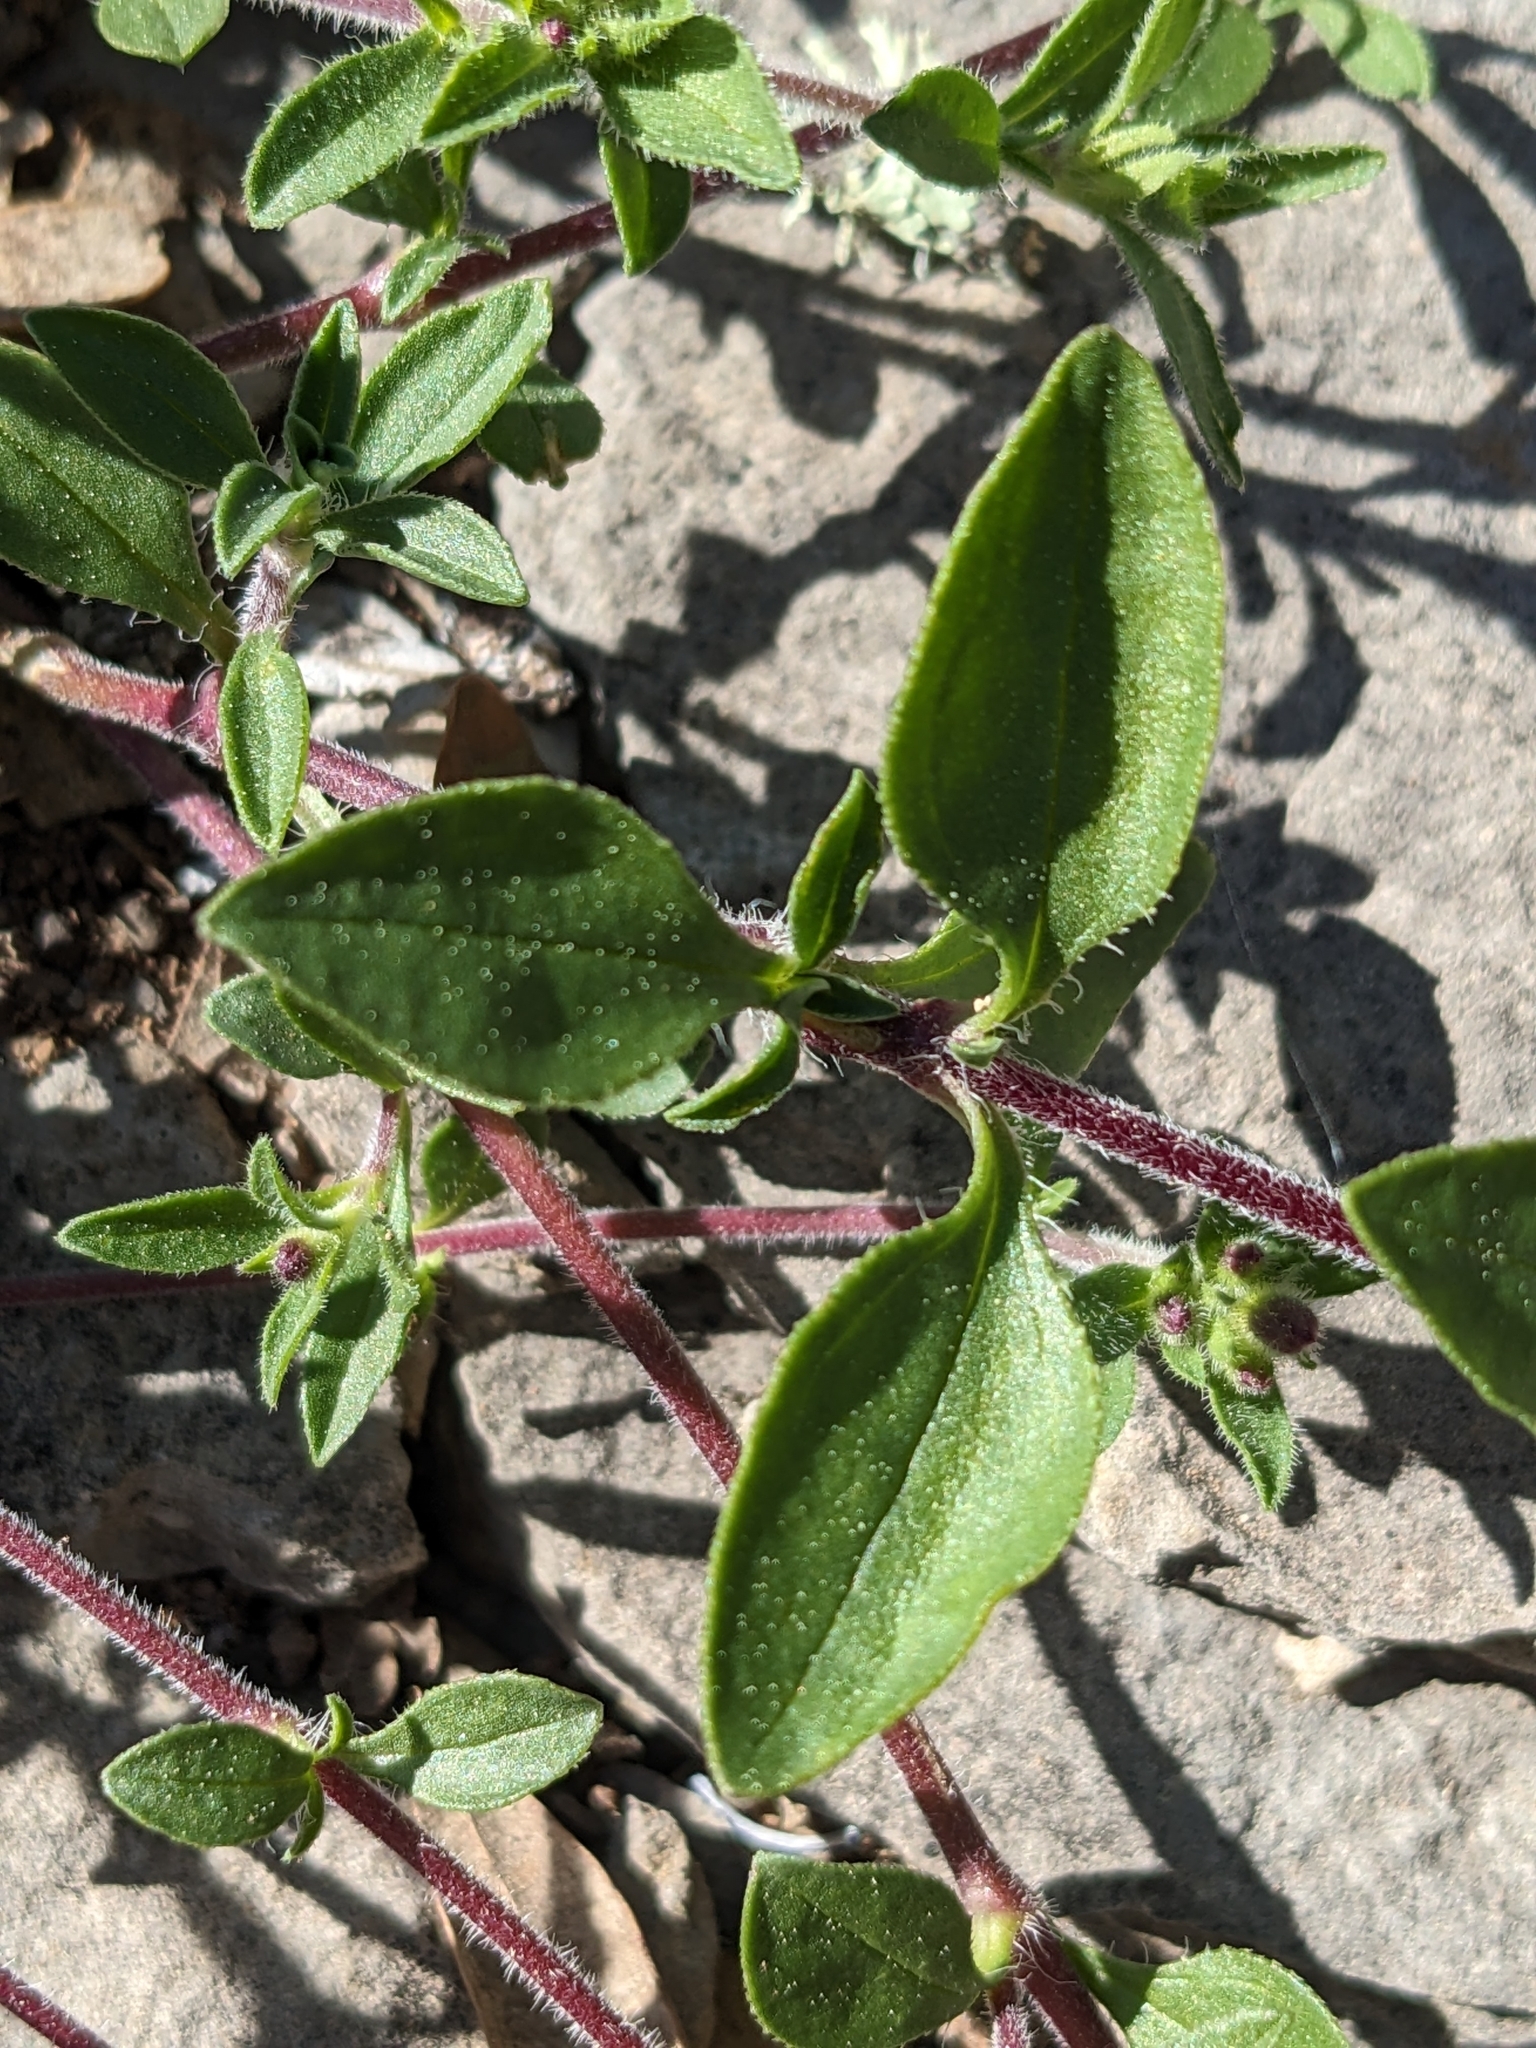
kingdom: Plantae
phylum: Tracheophyta
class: Magnoliopsida
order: Caryophyllales
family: Caryophyllaceae
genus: Saponaria
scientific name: Saponaria ocymoides
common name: Rock soapwort
